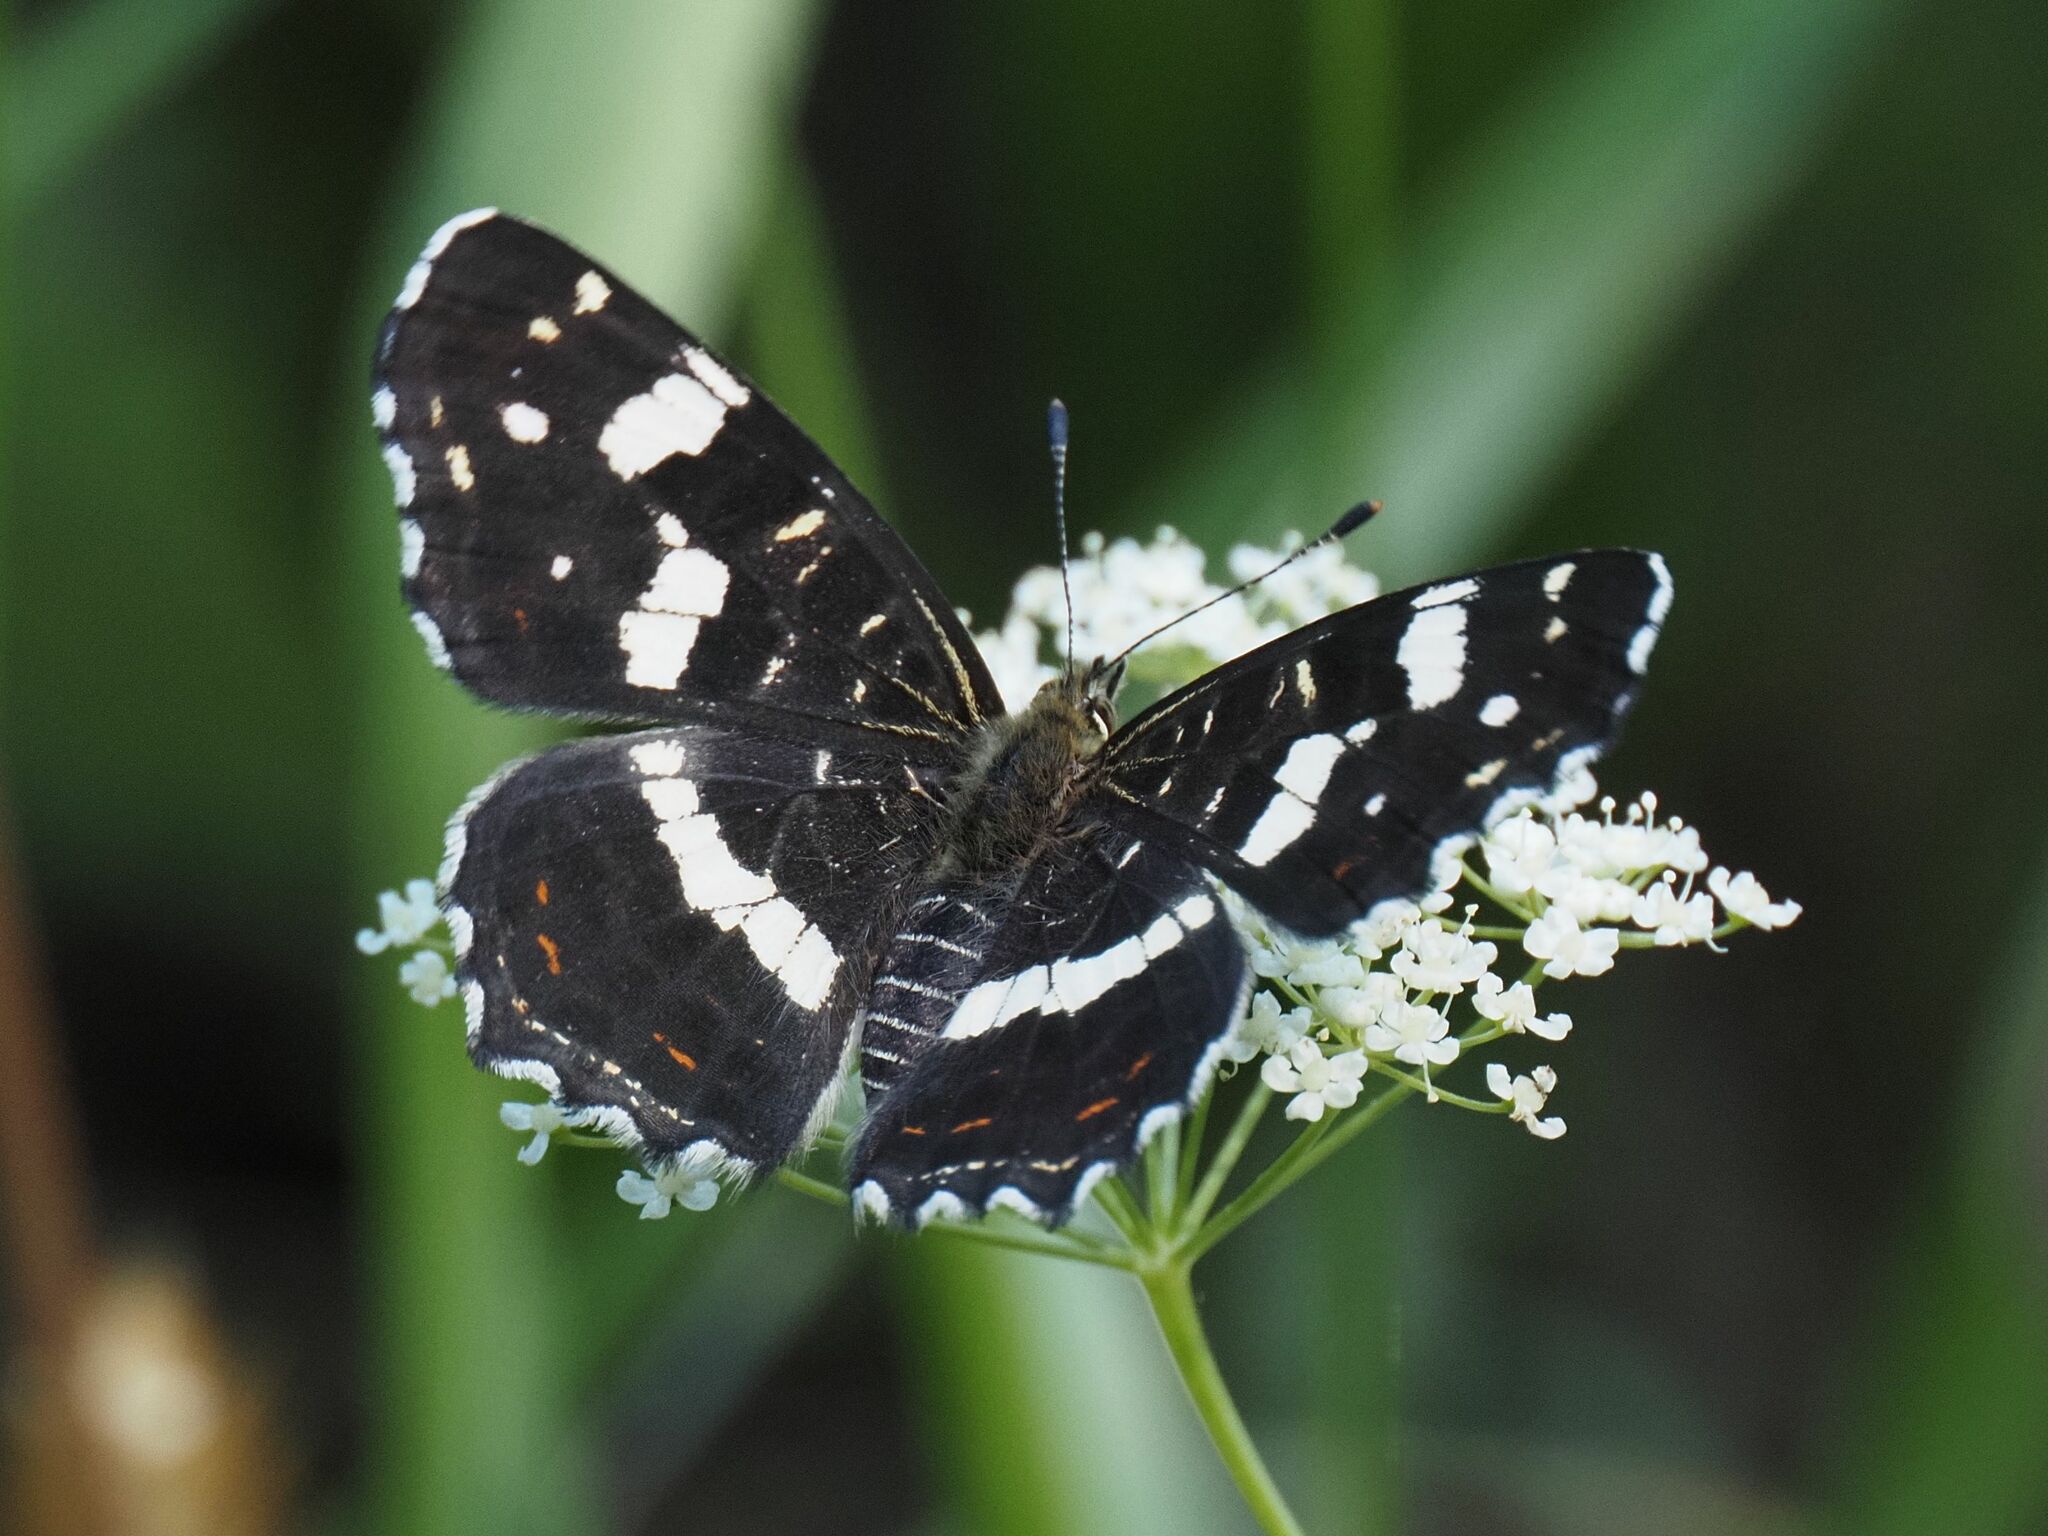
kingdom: Animalia
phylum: Arthropoda
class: Insecta
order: Lepidoptera
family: Nymphalidae
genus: Araschnia
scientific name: Araschnia levana
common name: Map butterfly
